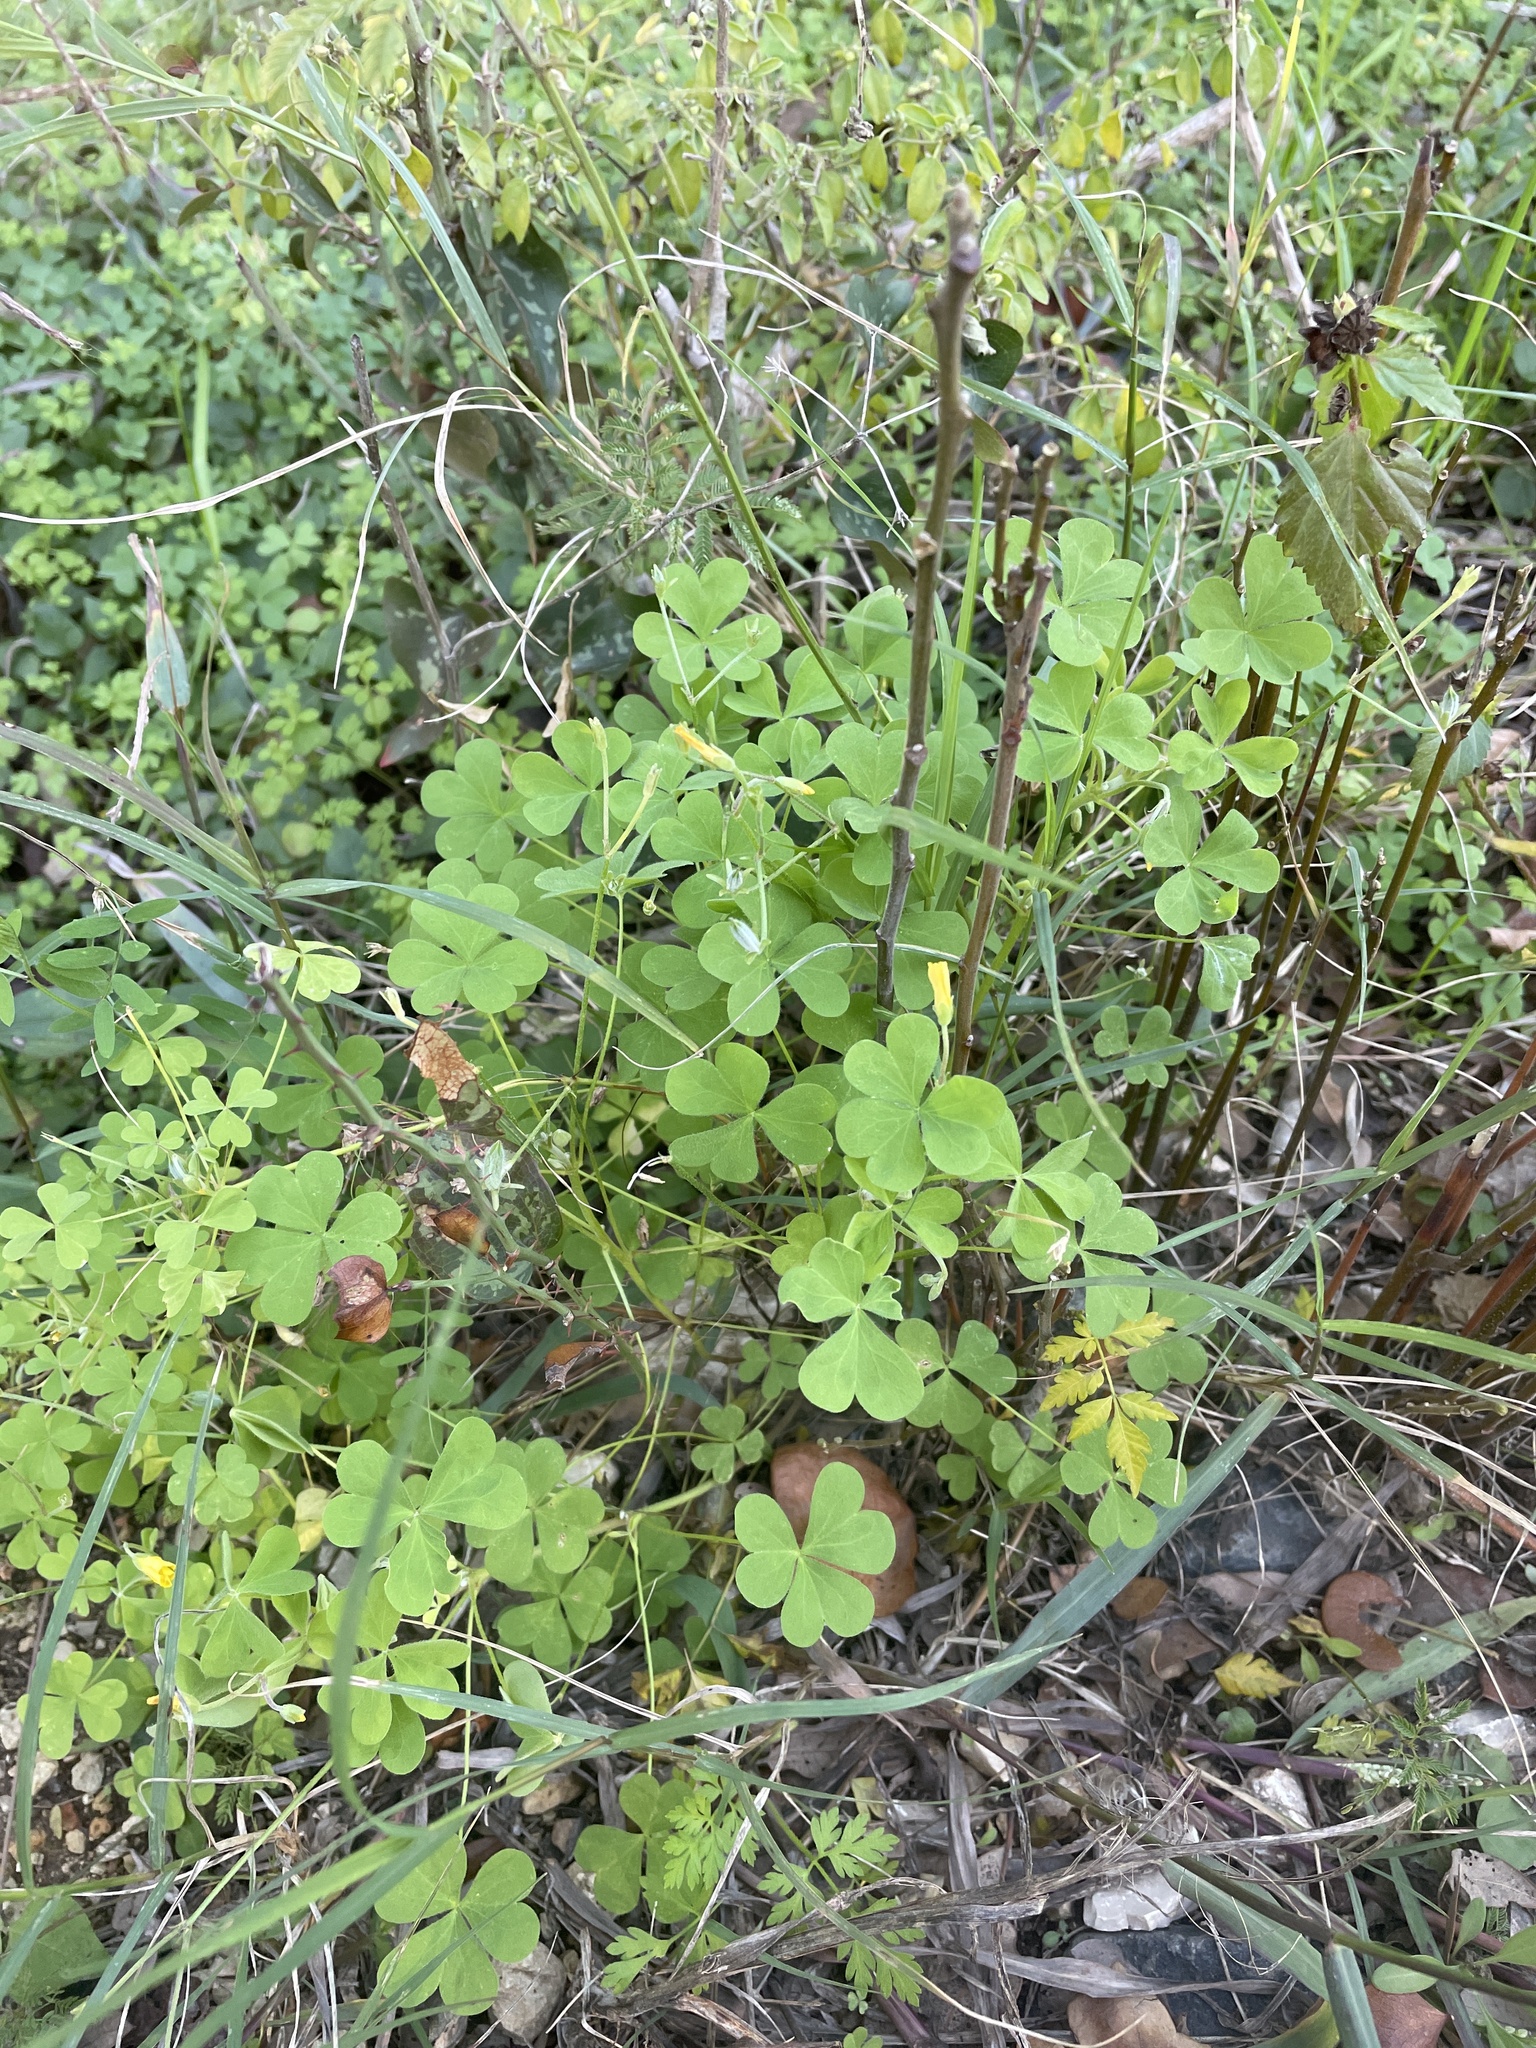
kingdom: Plantae
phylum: Tracheophyta
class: Magnoliopsida
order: Oxalidales
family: Oxalidaceae
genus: Oxalis
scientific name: Oxalis dillenii
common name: Sussex yellow-sorrel
